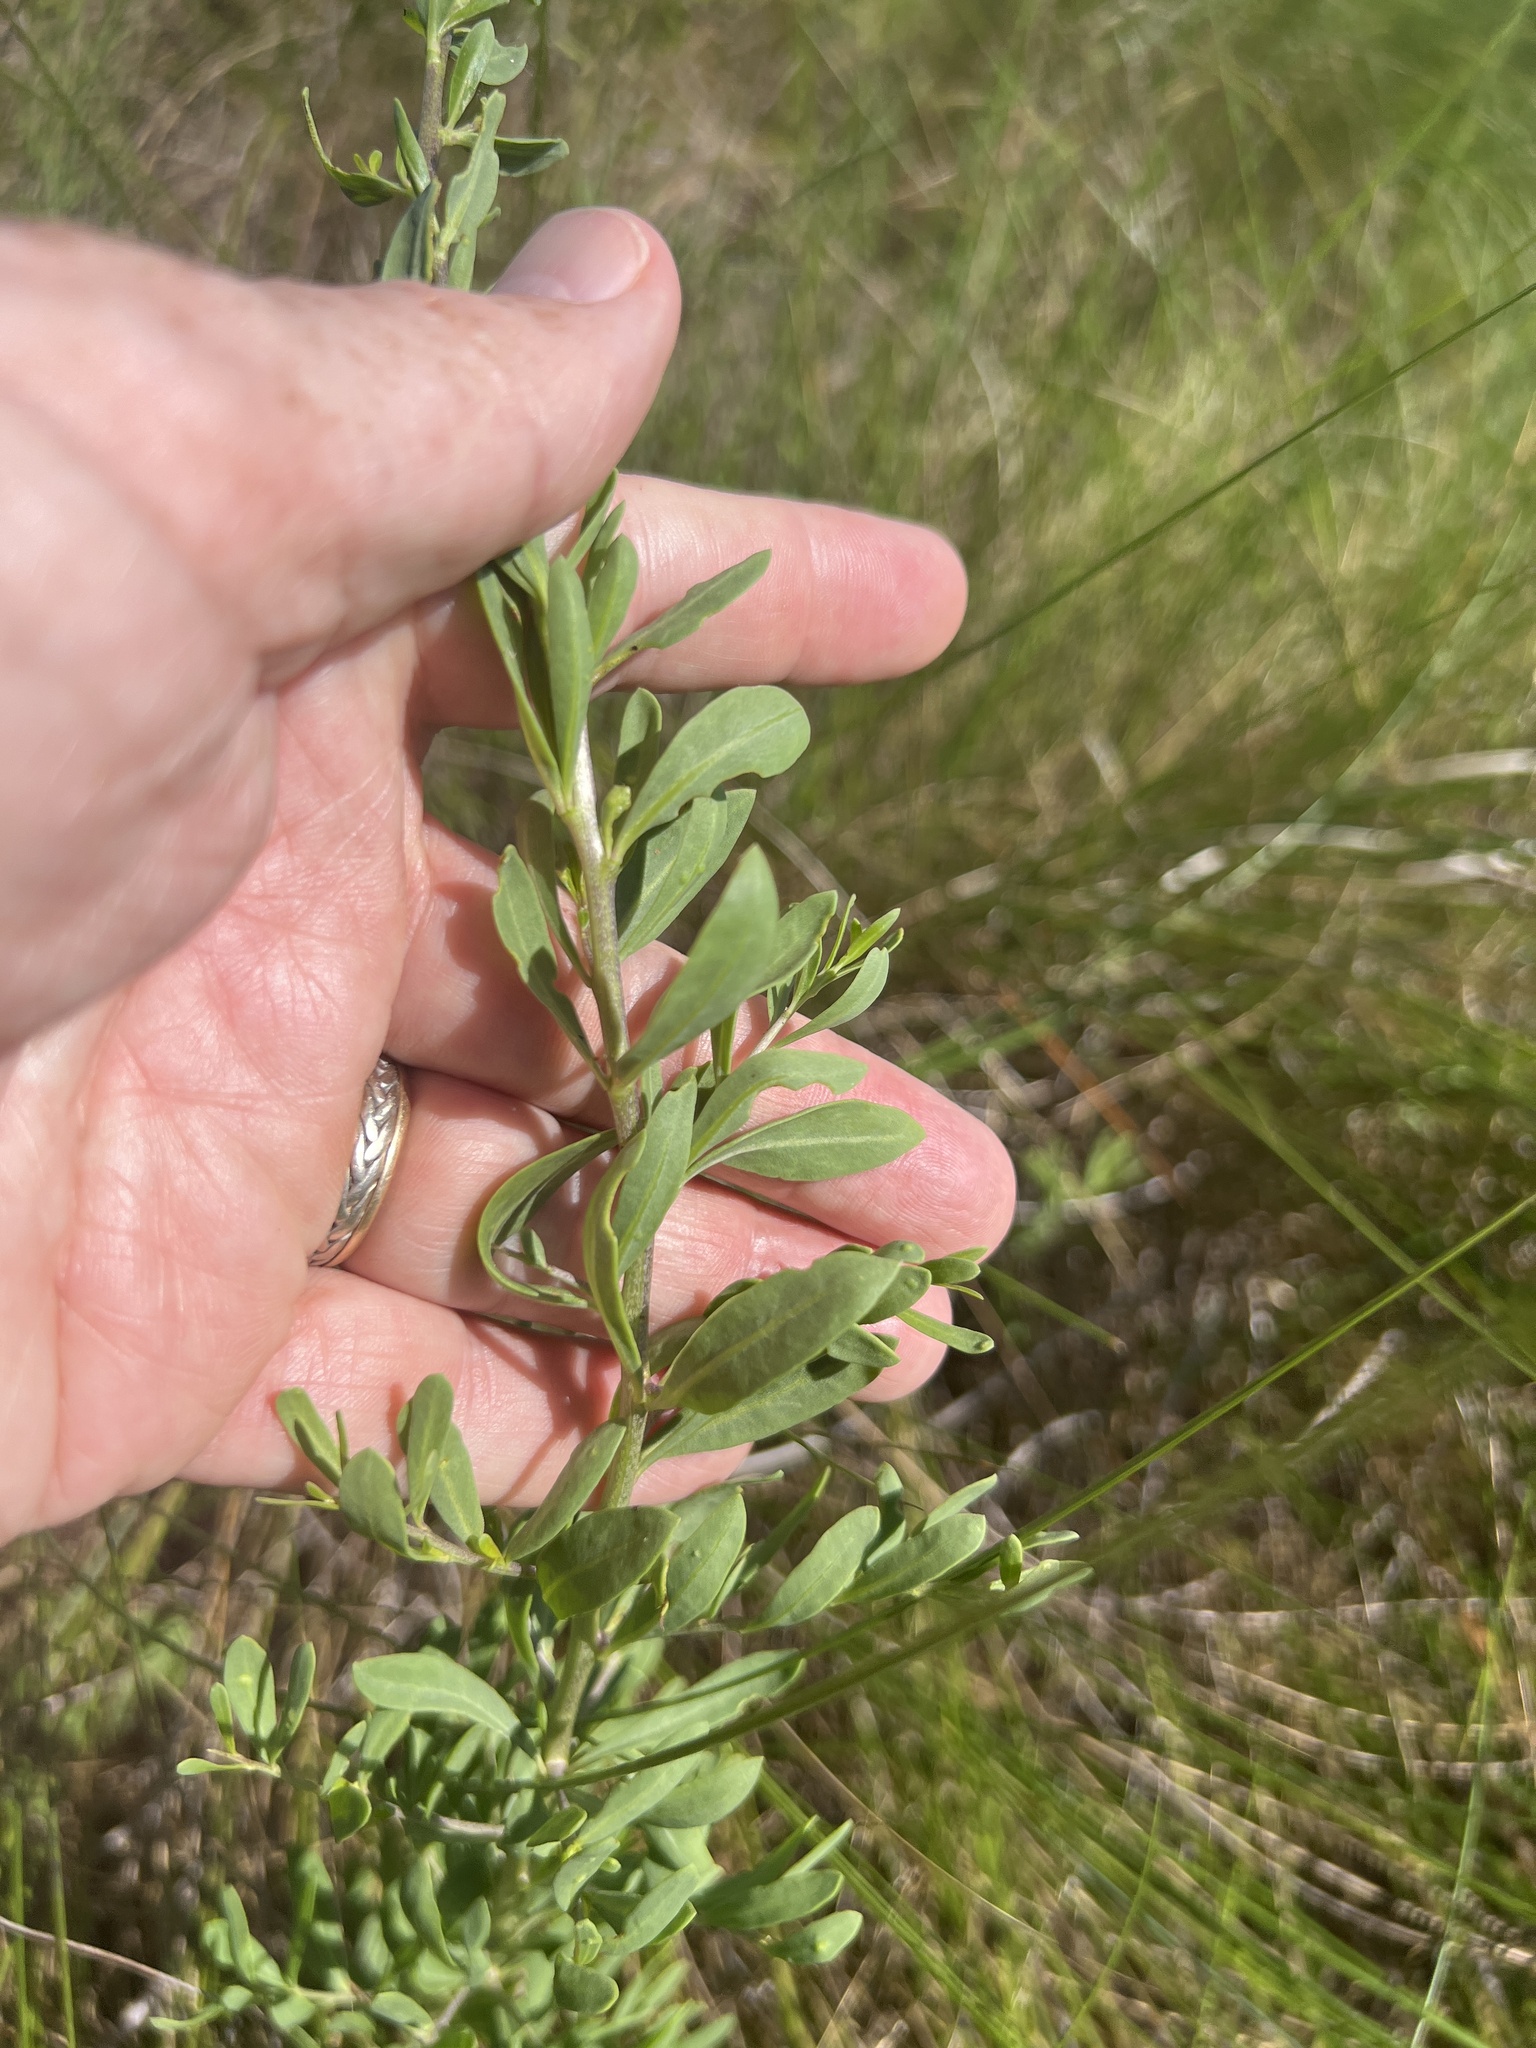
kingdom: Plantae
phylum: Tracheophyta
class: Magnoliopsida
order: Solanales
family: Solanaceae
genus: Lycium
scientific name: Lycium carolinianum
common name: Christmasberry
